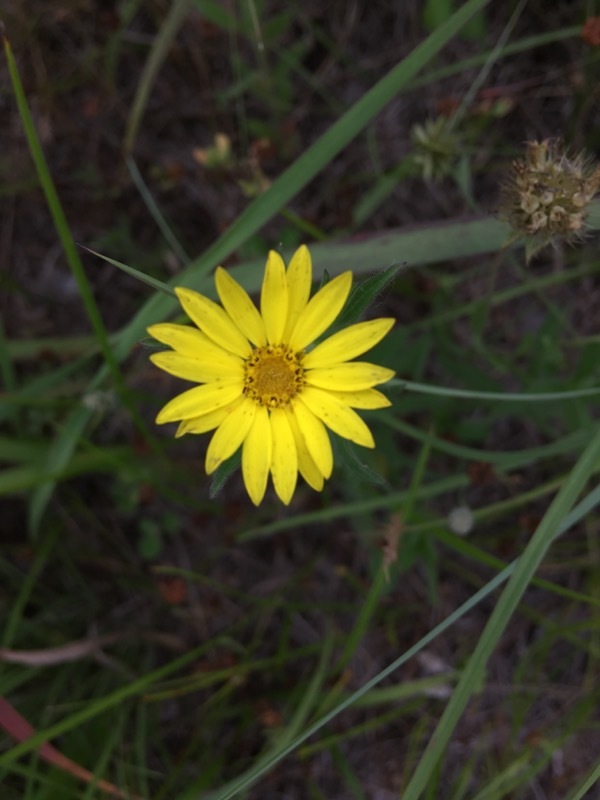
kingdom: Plantae
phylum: Tracheophyta
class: Magnoliopsida
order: Asterales
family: Asteraceae
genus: Bradburia
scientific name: Bradburia pilosa
